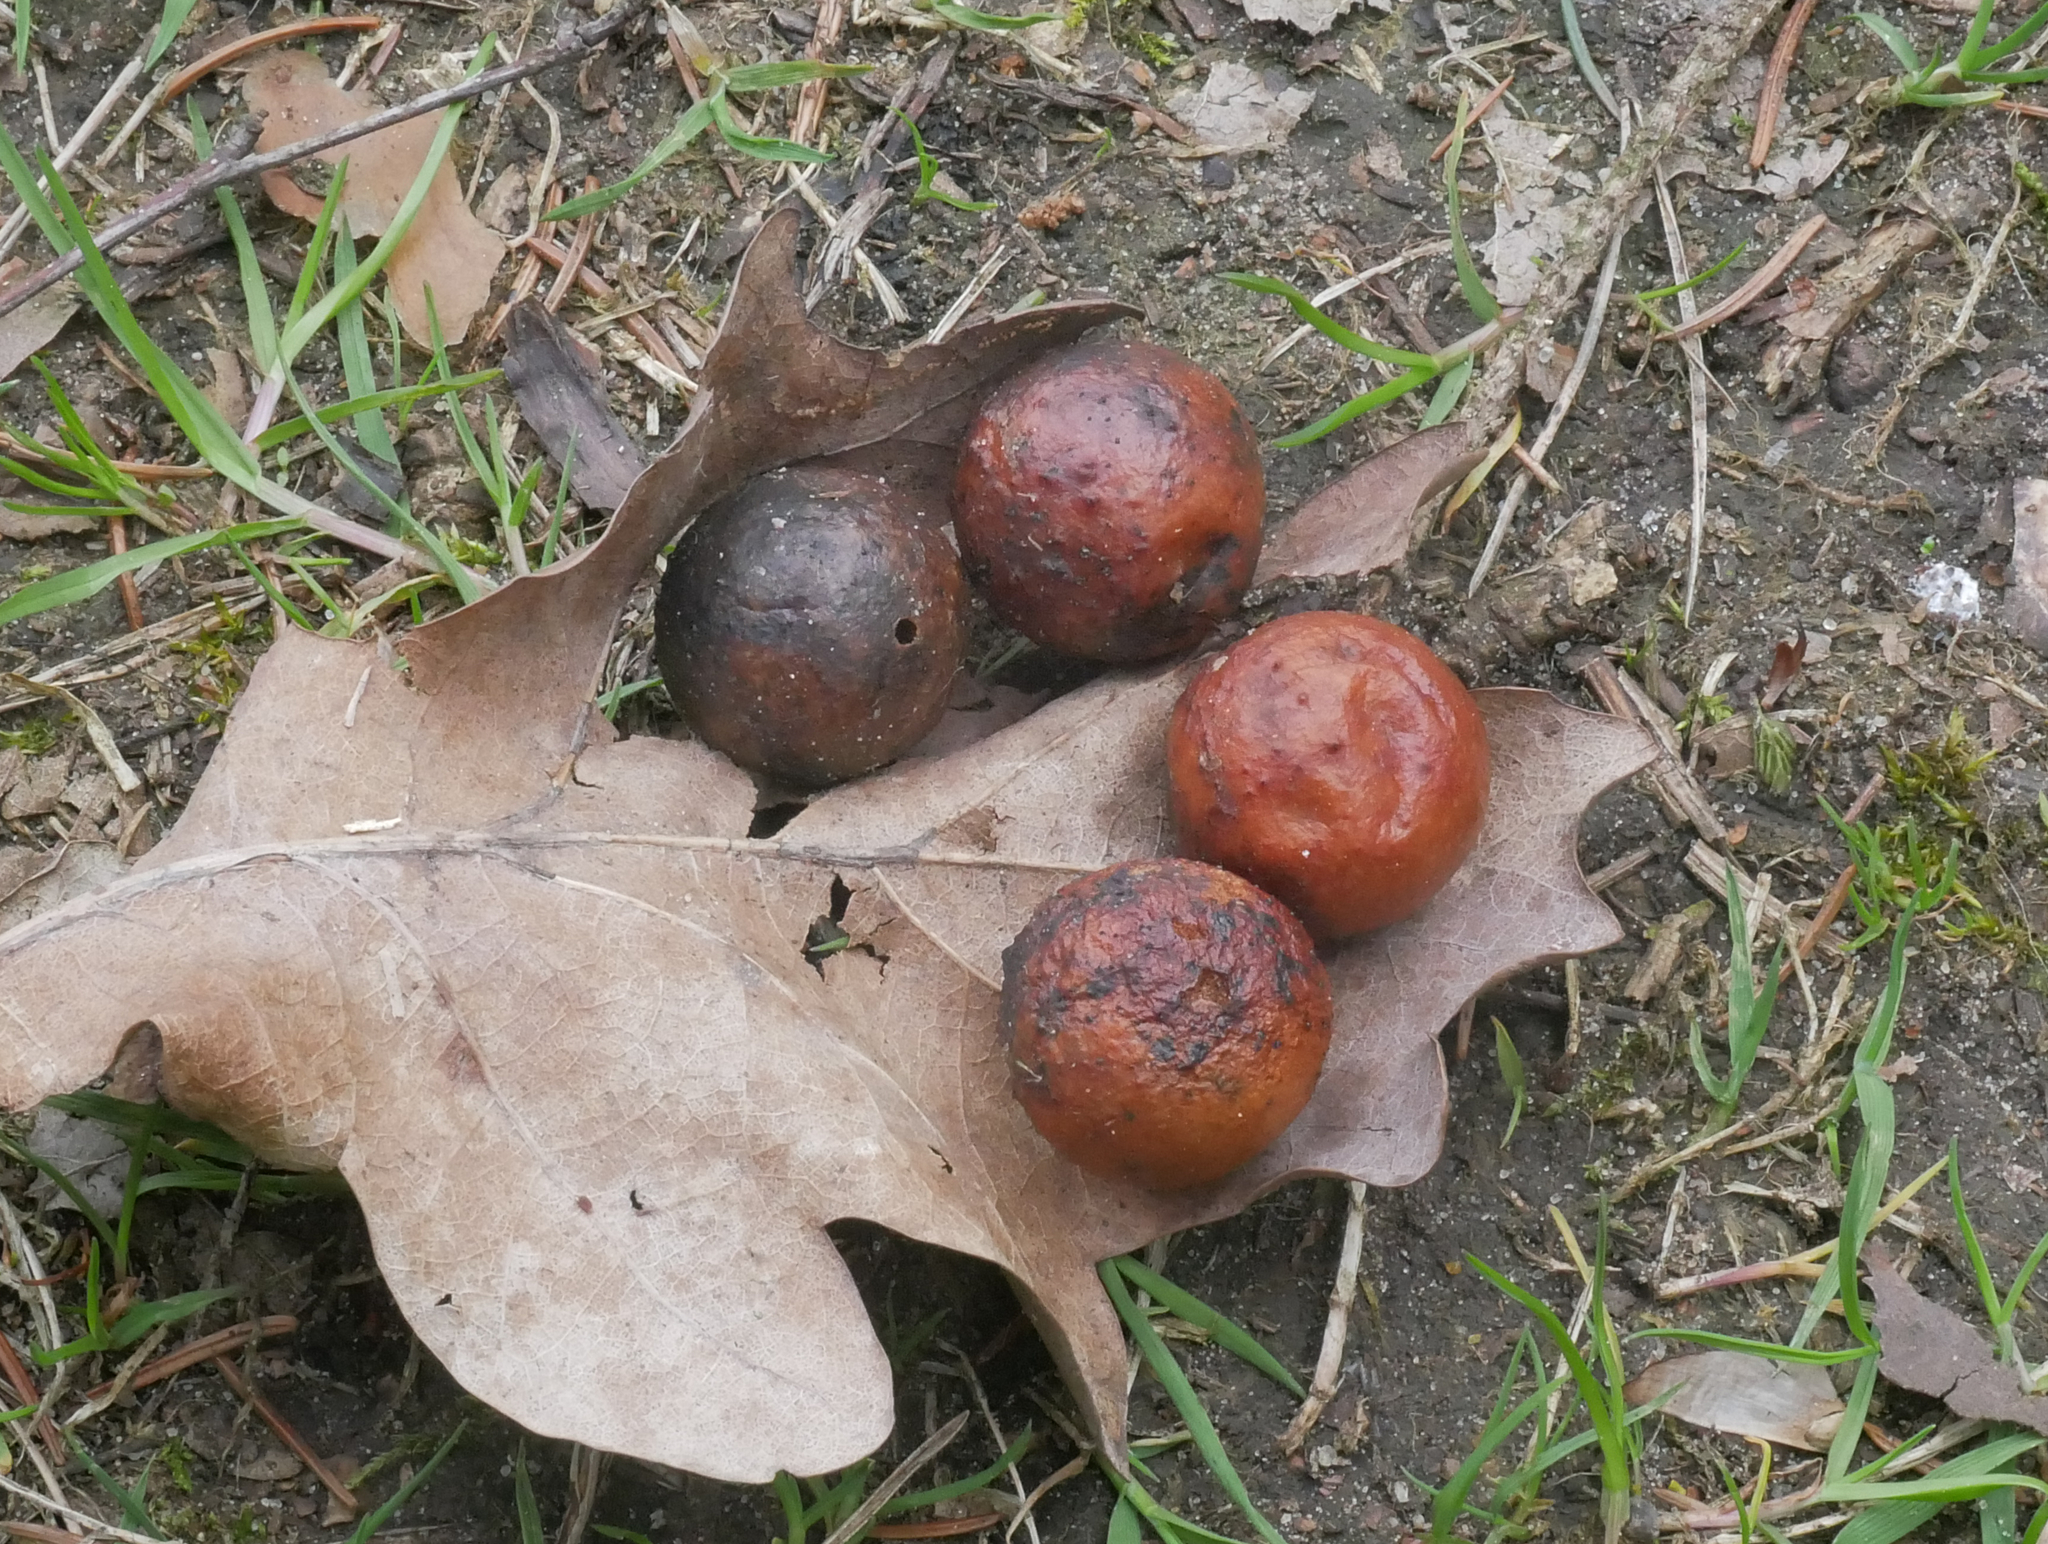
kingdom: Animalia
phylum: Arthropoda
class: Insecta
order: Hymenoptera
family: Cynipidae
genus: Cynips
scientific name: Cynips quercusfolii
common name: Cherry gall
